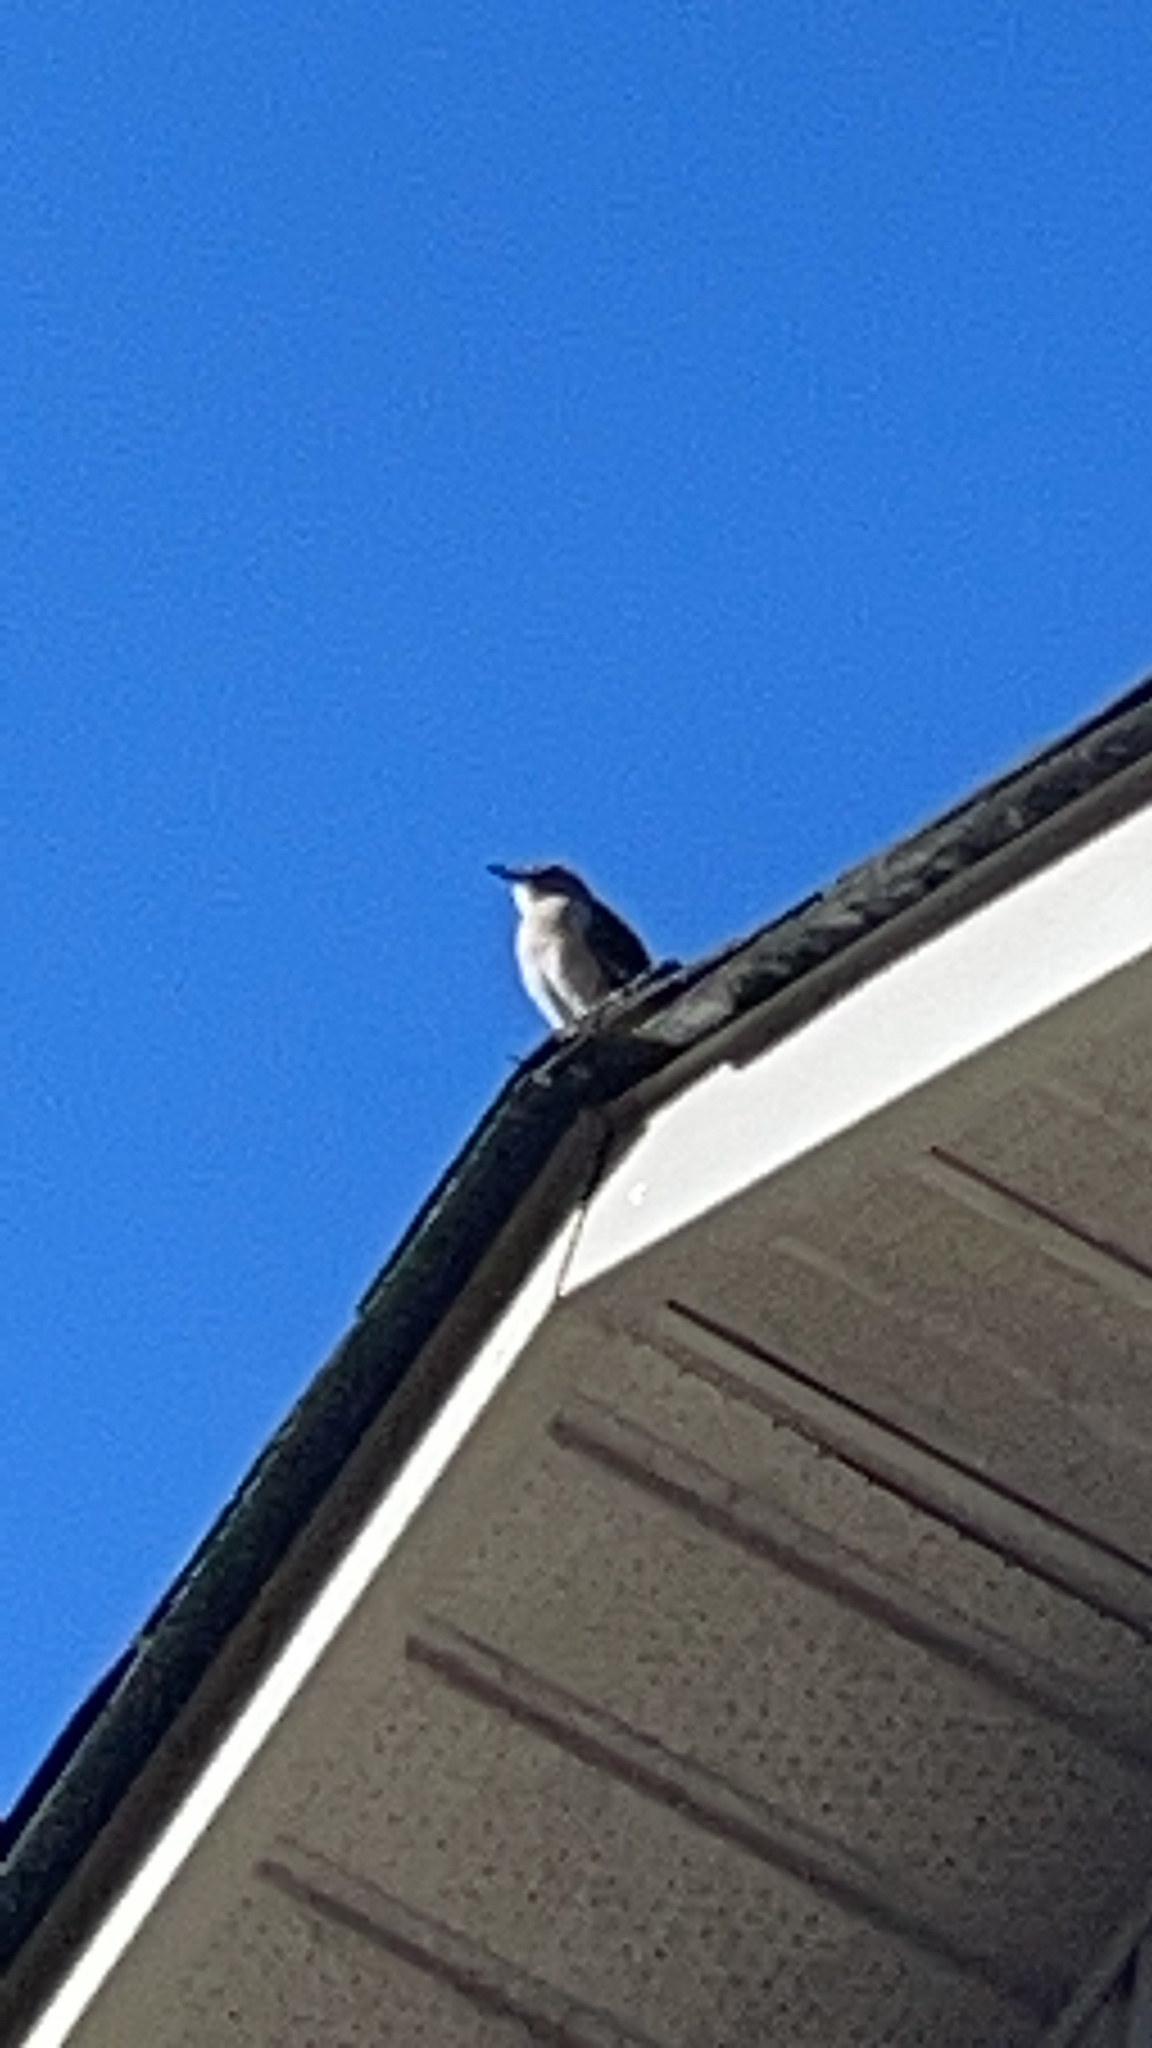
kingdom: Animalia
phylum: Chordata
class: Aves
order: Passeriformes
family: Mimidae
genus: Mimus
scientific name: Mimus polyglottos
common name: Northern mockingbird
